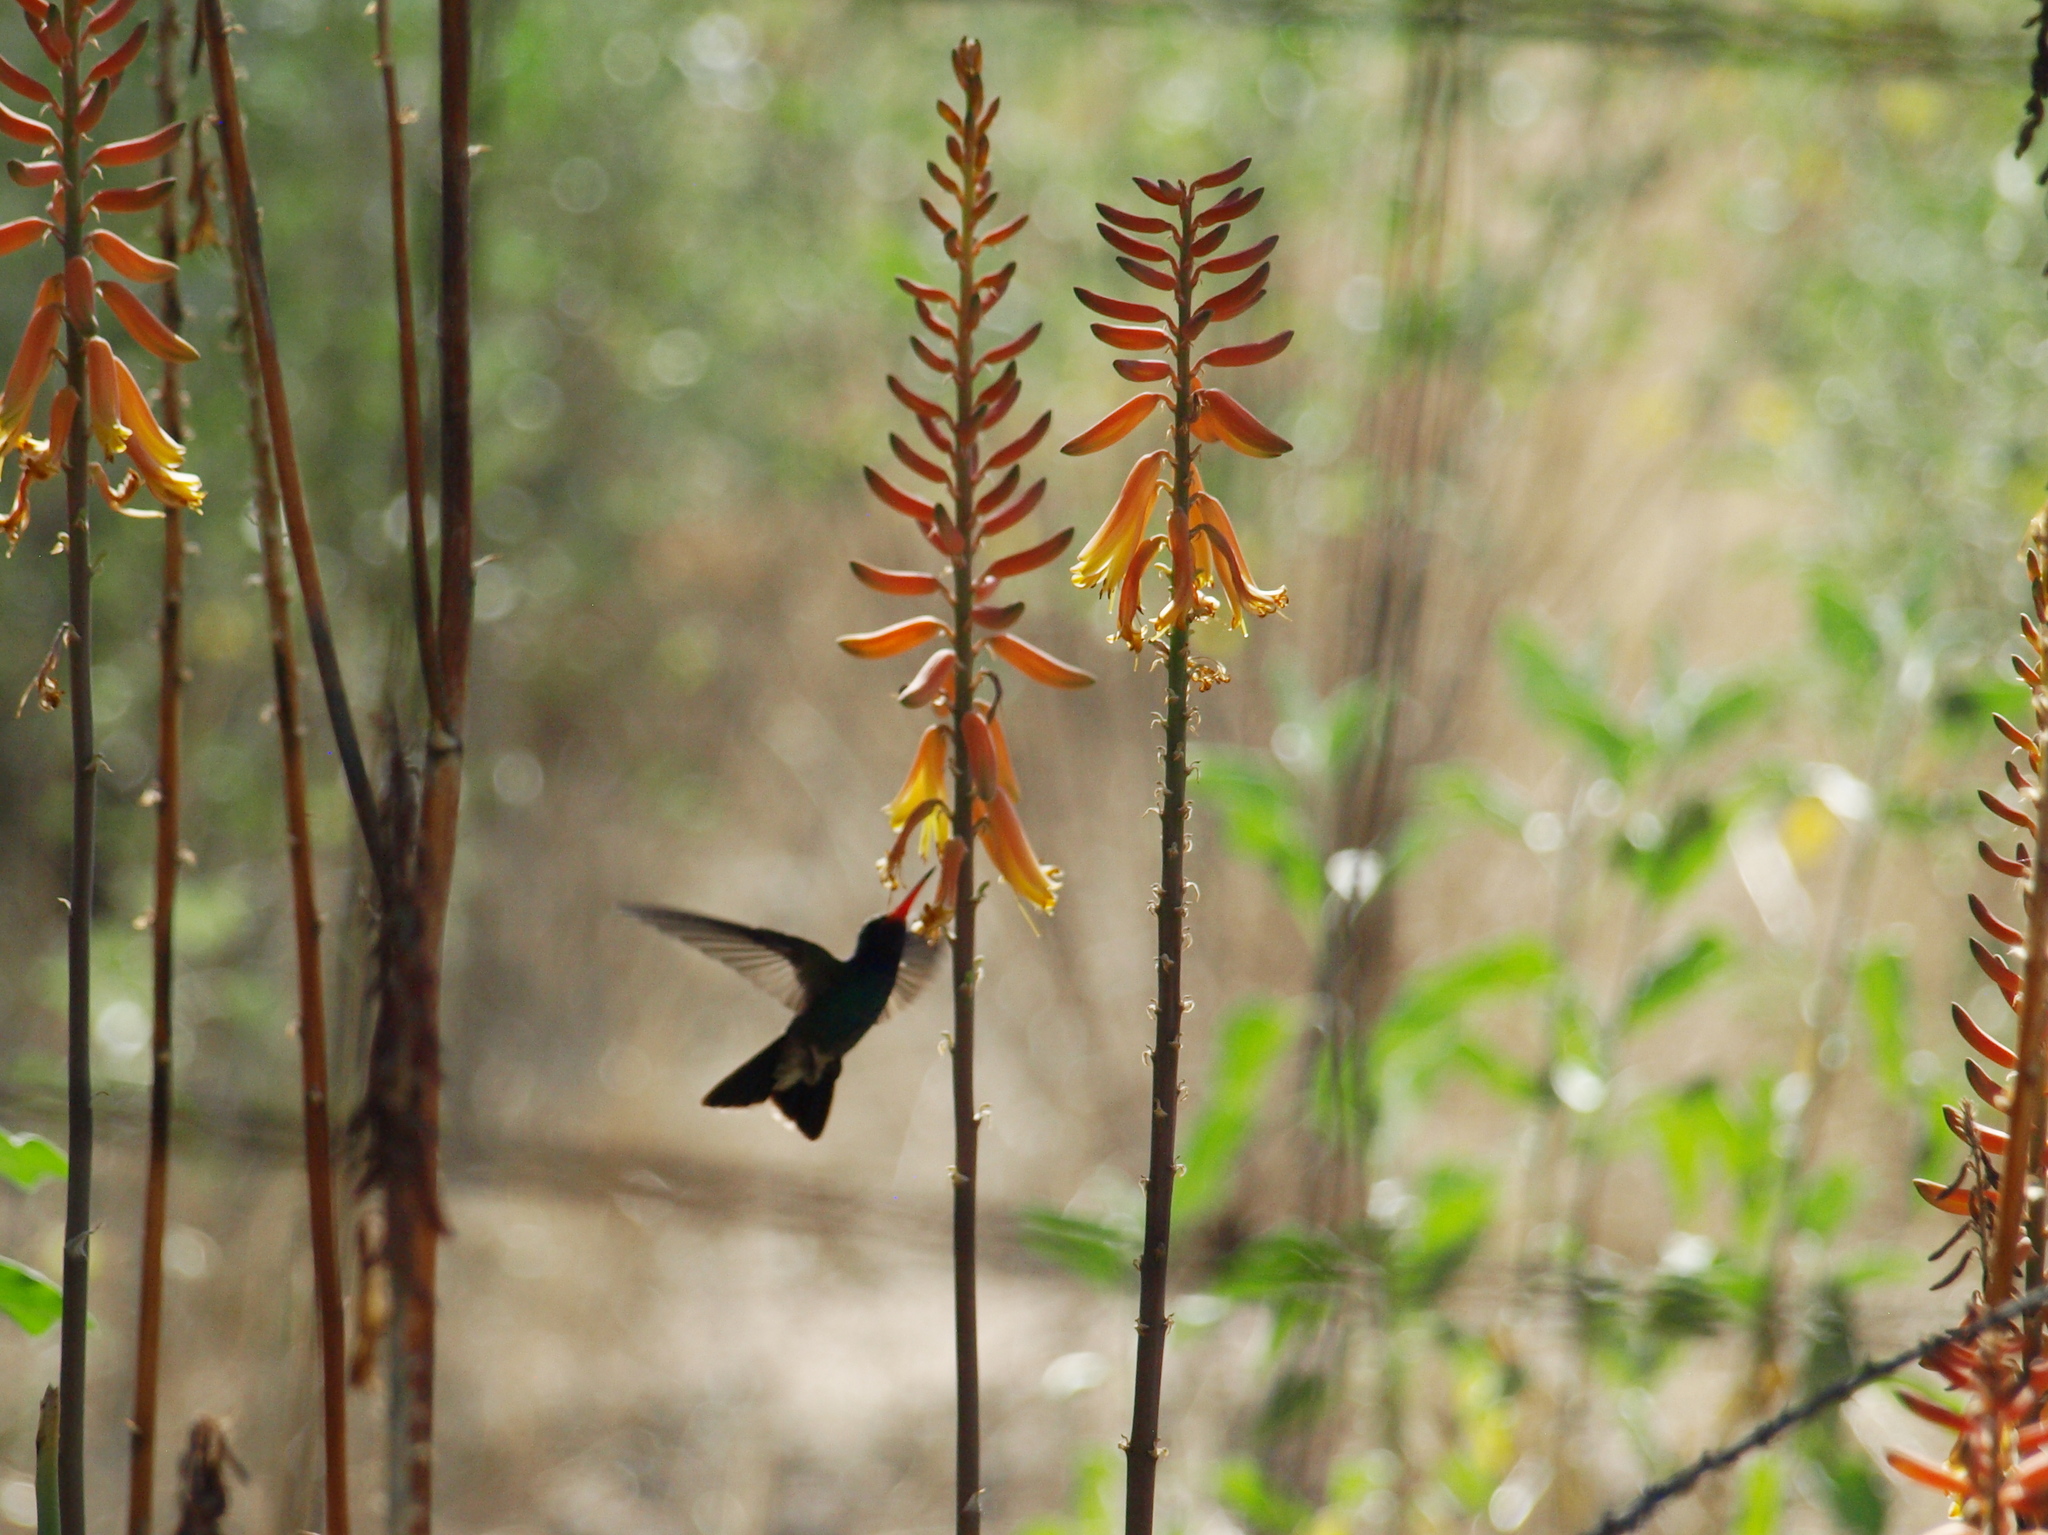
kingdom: Animalia
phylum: Chordata
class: Aves
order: Apodiformes
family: Trochilidae
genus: Cynanthus
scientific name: Cynanthus latirostris
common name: Broad-billed hummingbird
